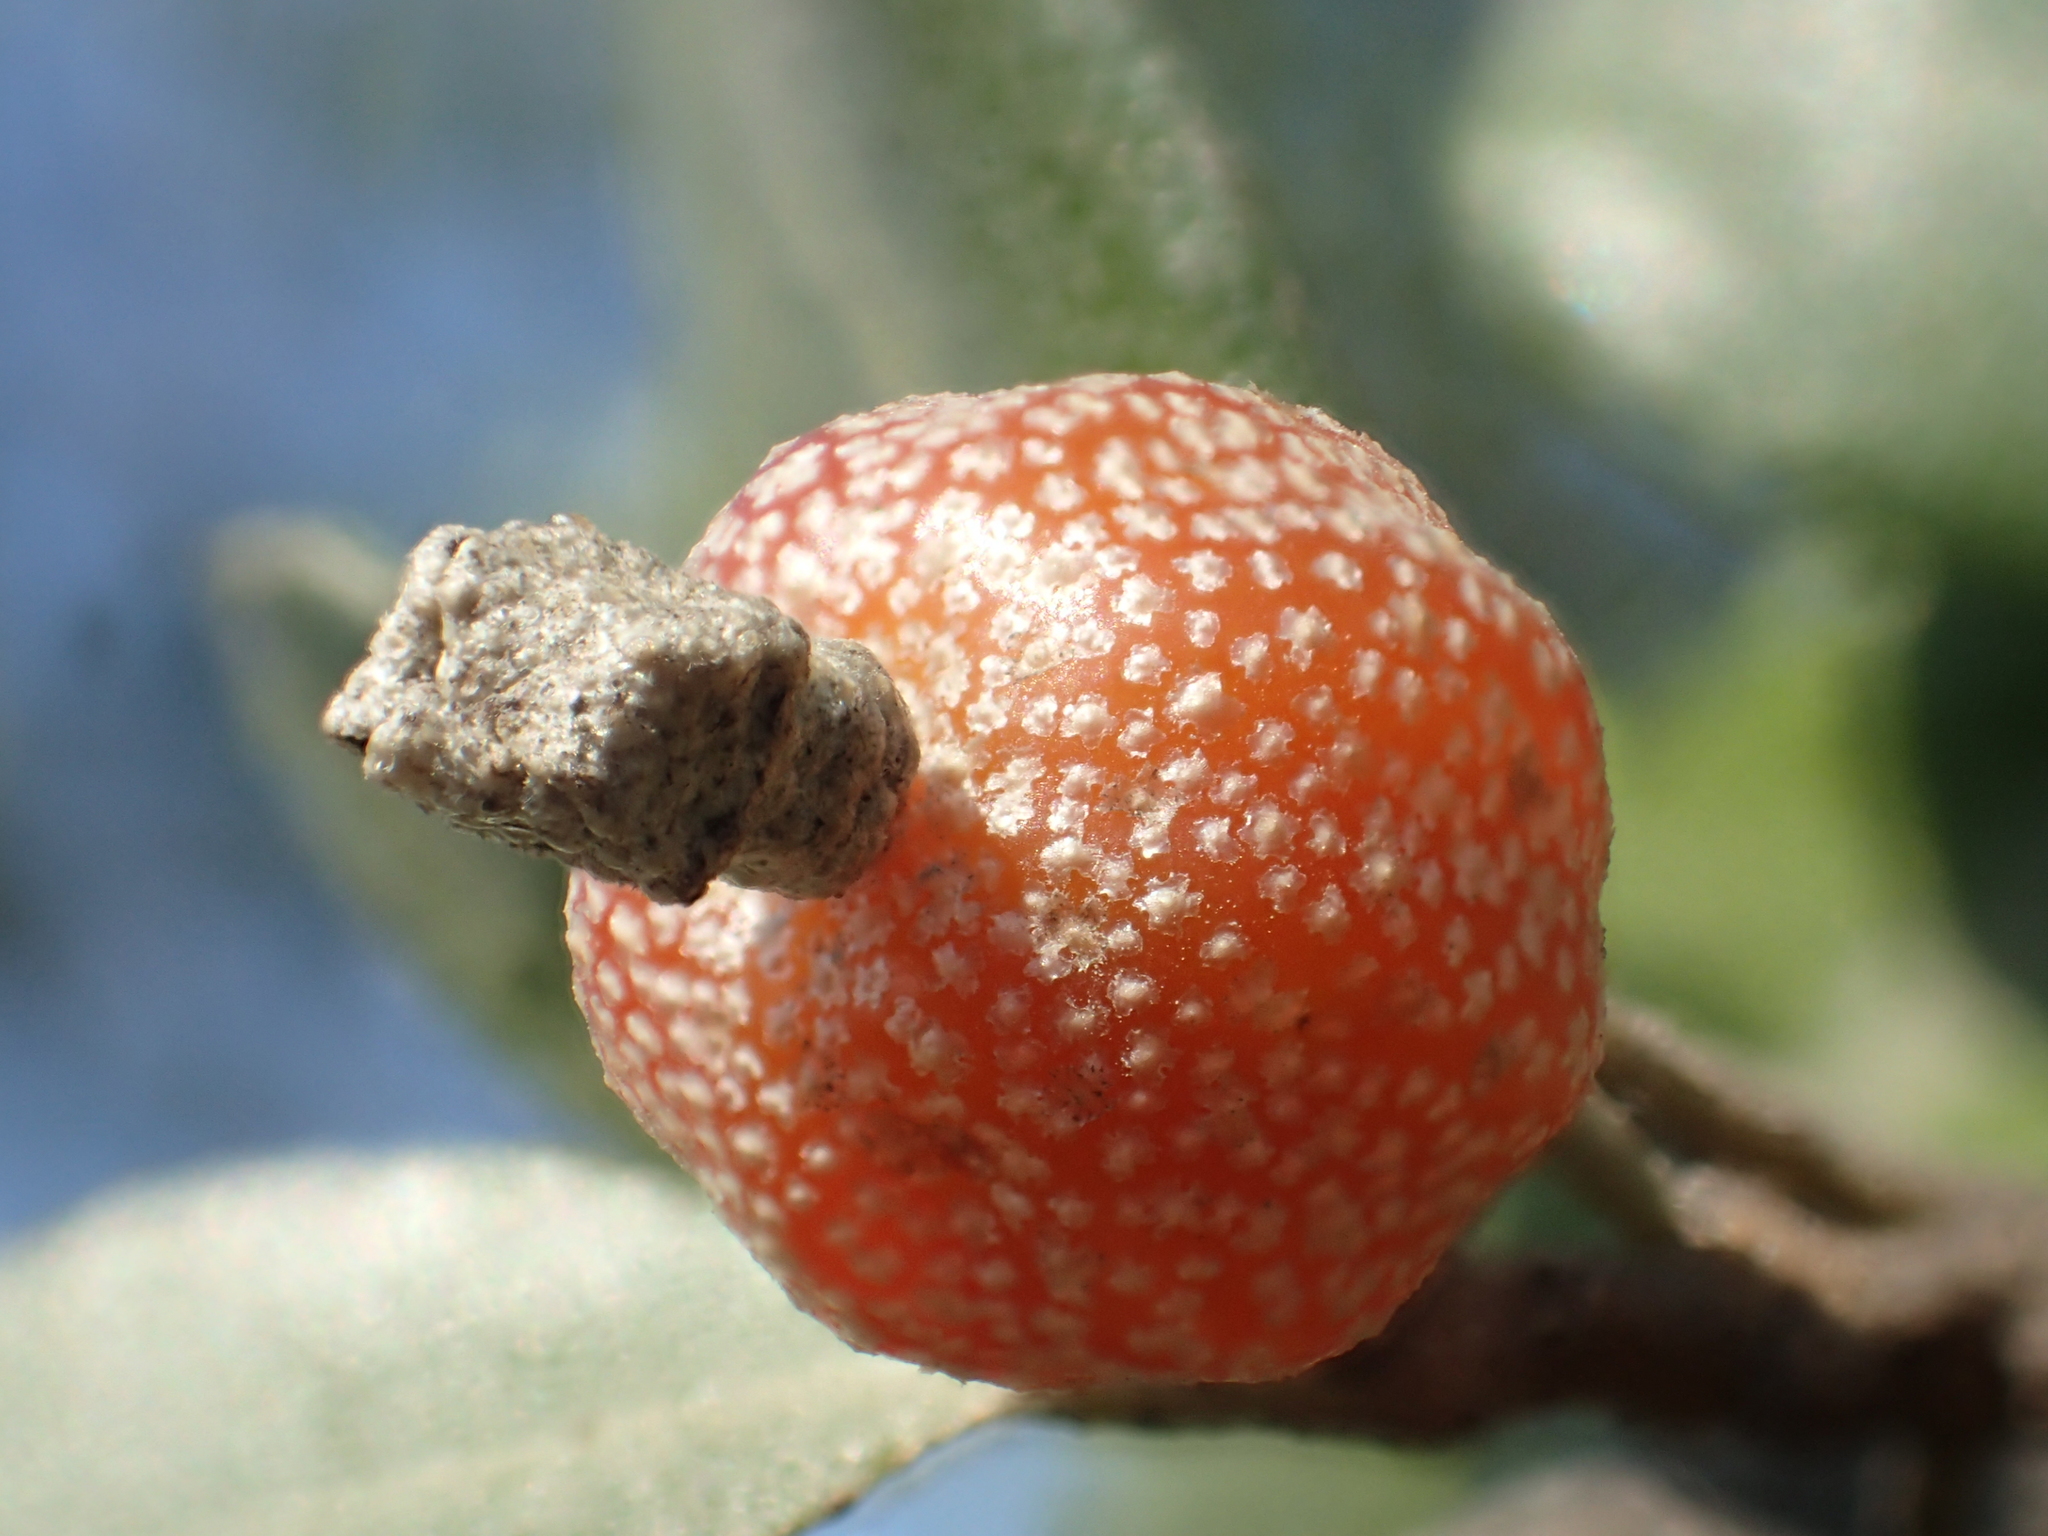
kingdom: Plantae
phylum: Tracheophyta
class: Magnoliopsida
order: Rosales
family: Elaeagnaceae
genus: Elaeagnus
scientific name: Elaeagnus oldhamii
